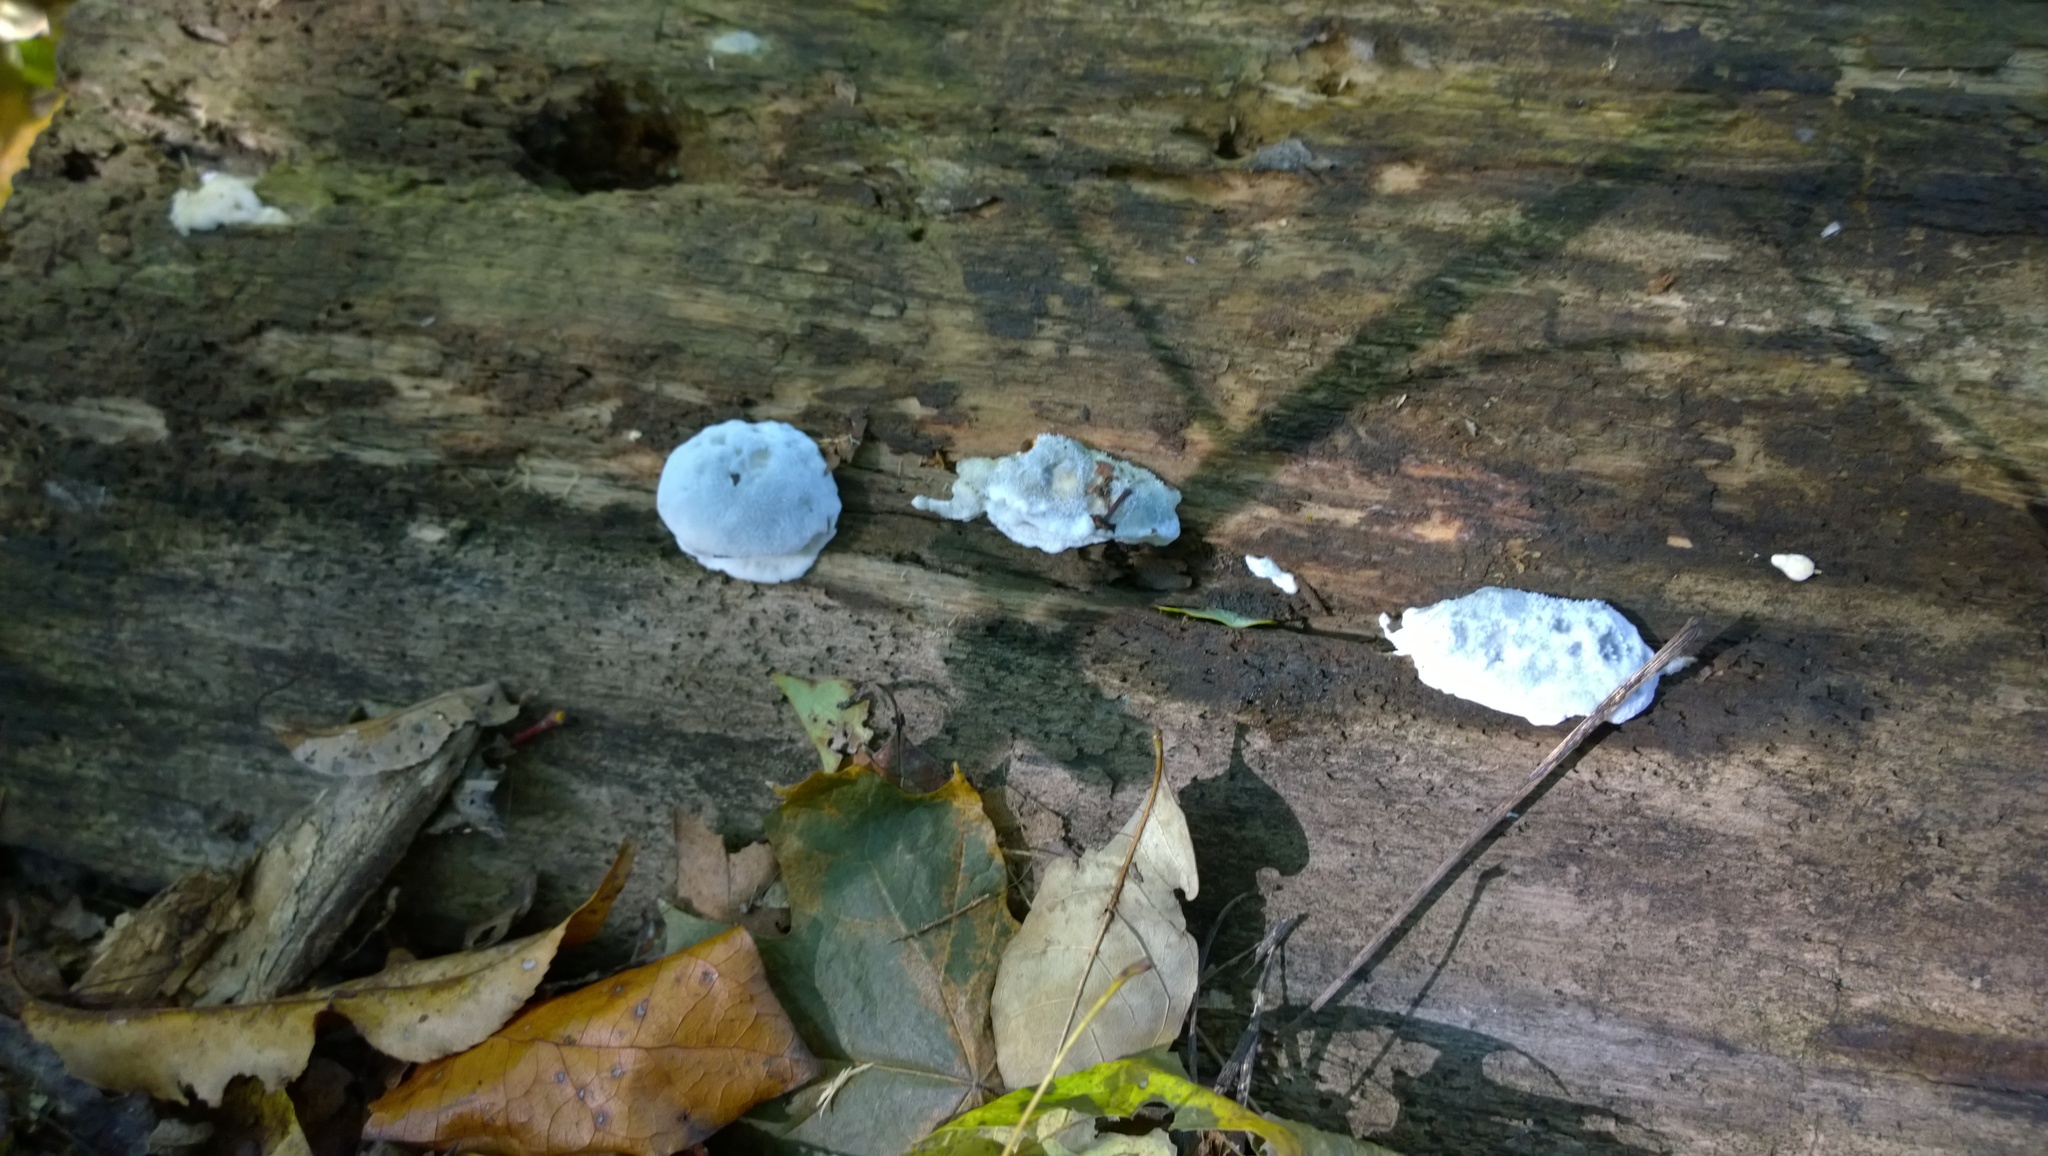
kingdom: Fungi
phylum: Basidiomycota
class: Agaricomycetes
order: Polyporales
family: Polyporaceae
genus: Cyanosporus
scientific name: Cyanosporus caesius
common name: Blue cheese polypore
